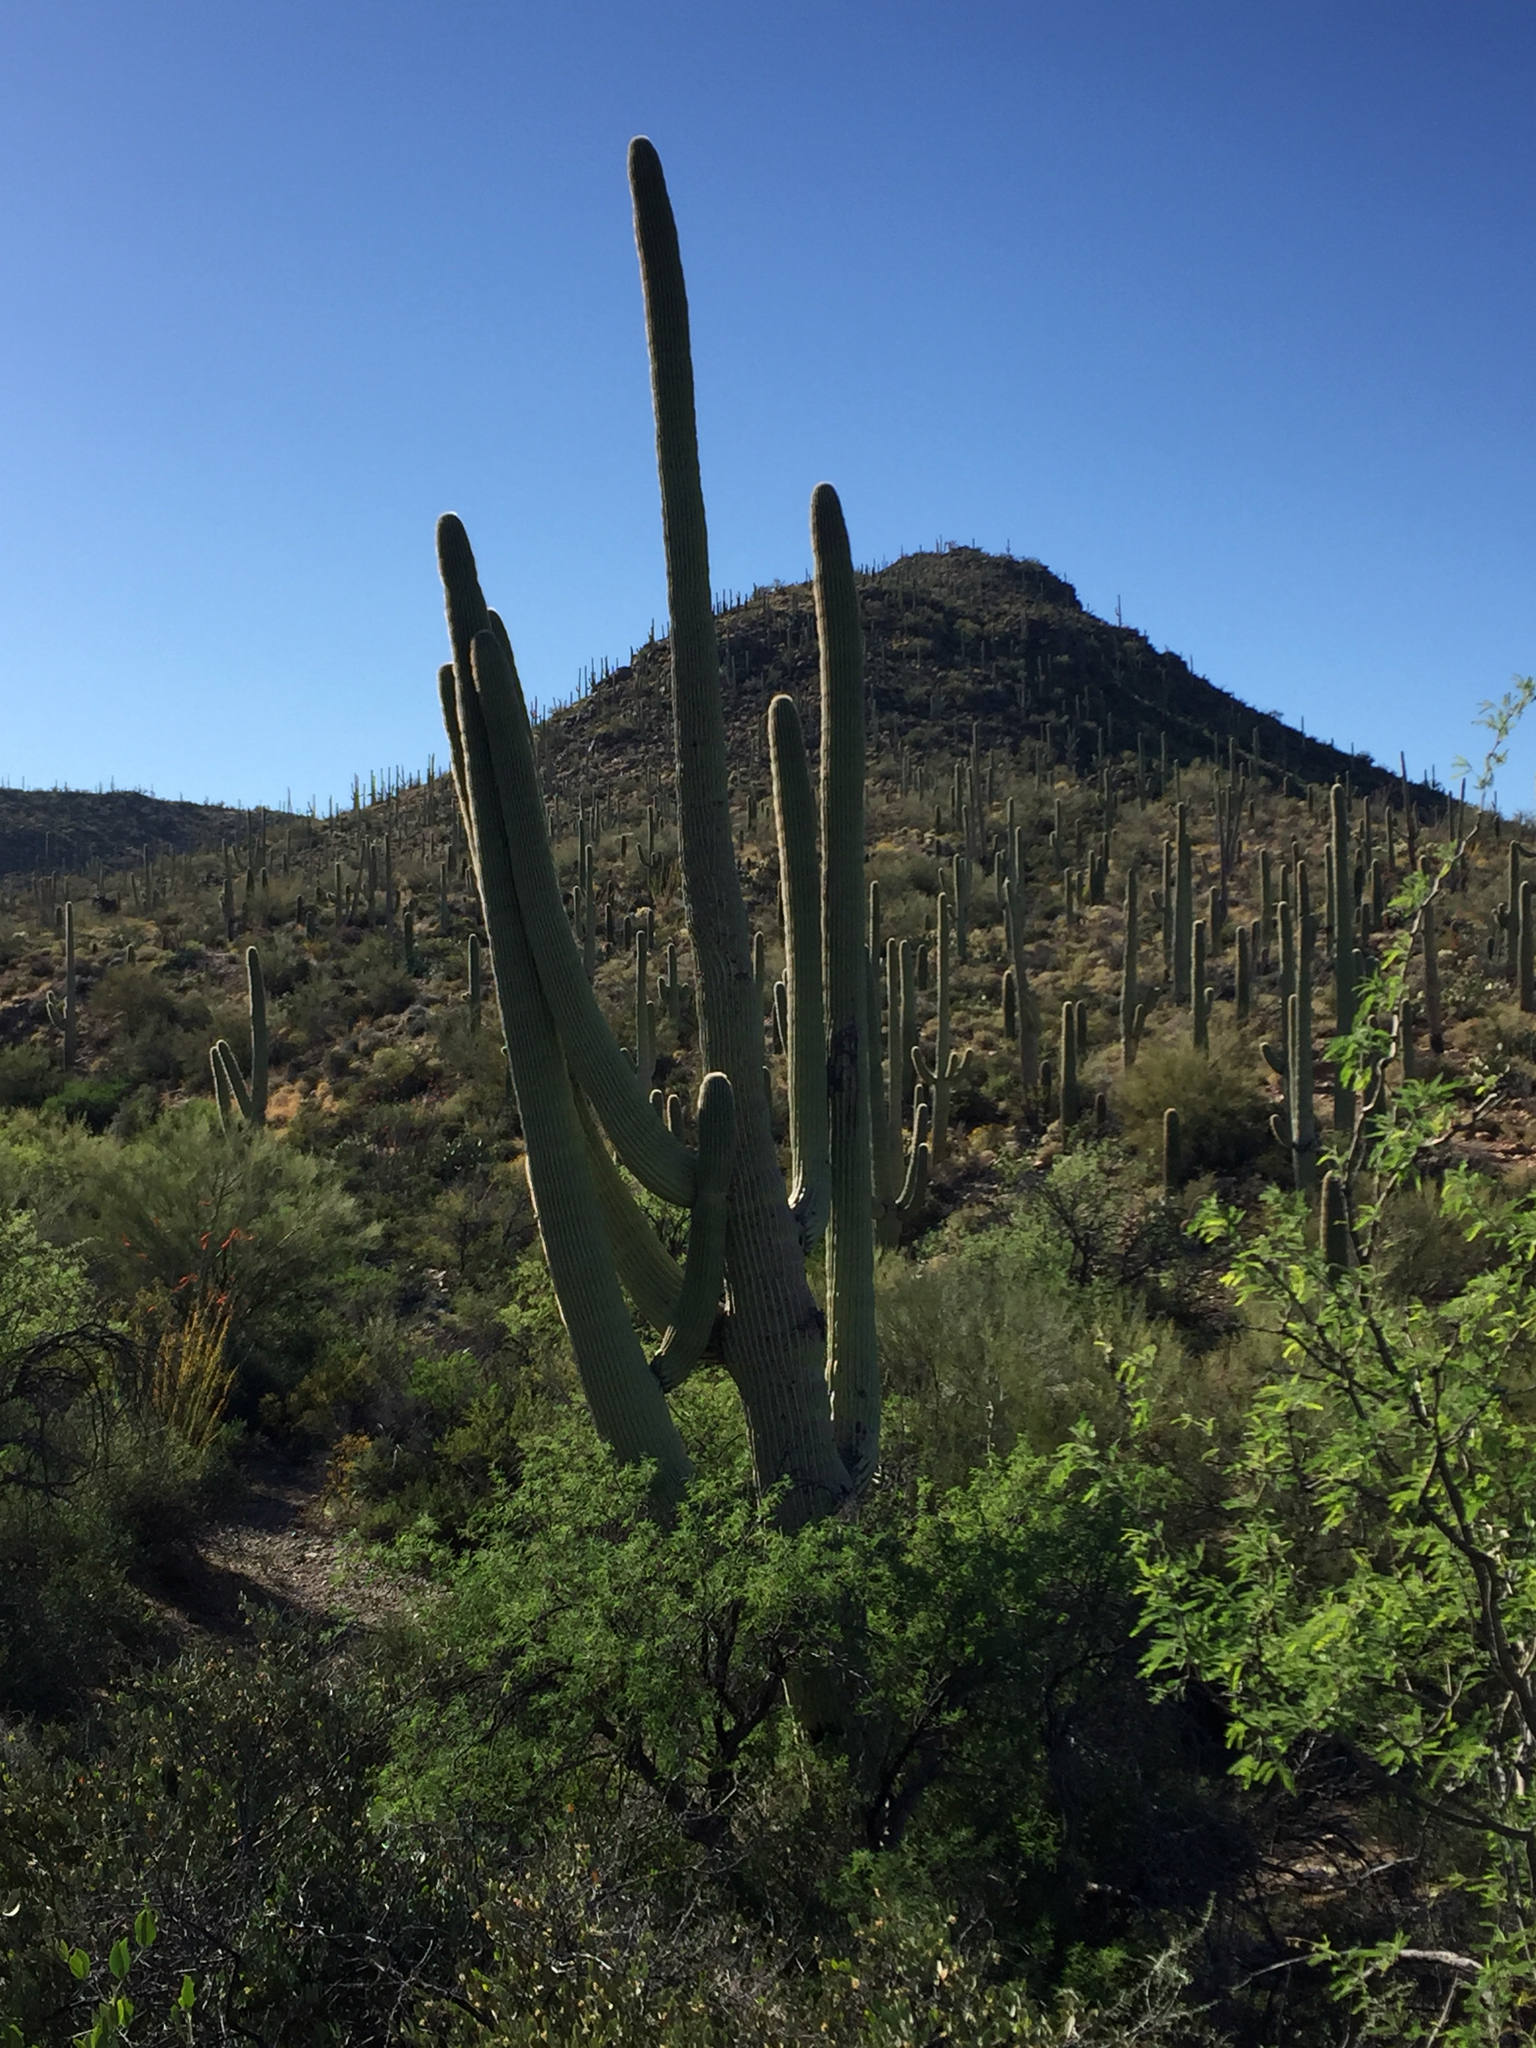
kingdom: Plantae
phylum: Tracheophyta
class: Magnoliopsida
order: Caryophyllales
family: Cactaceae
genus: Carnegiea
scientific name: Carnegiea gigantea
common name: Saguaro
